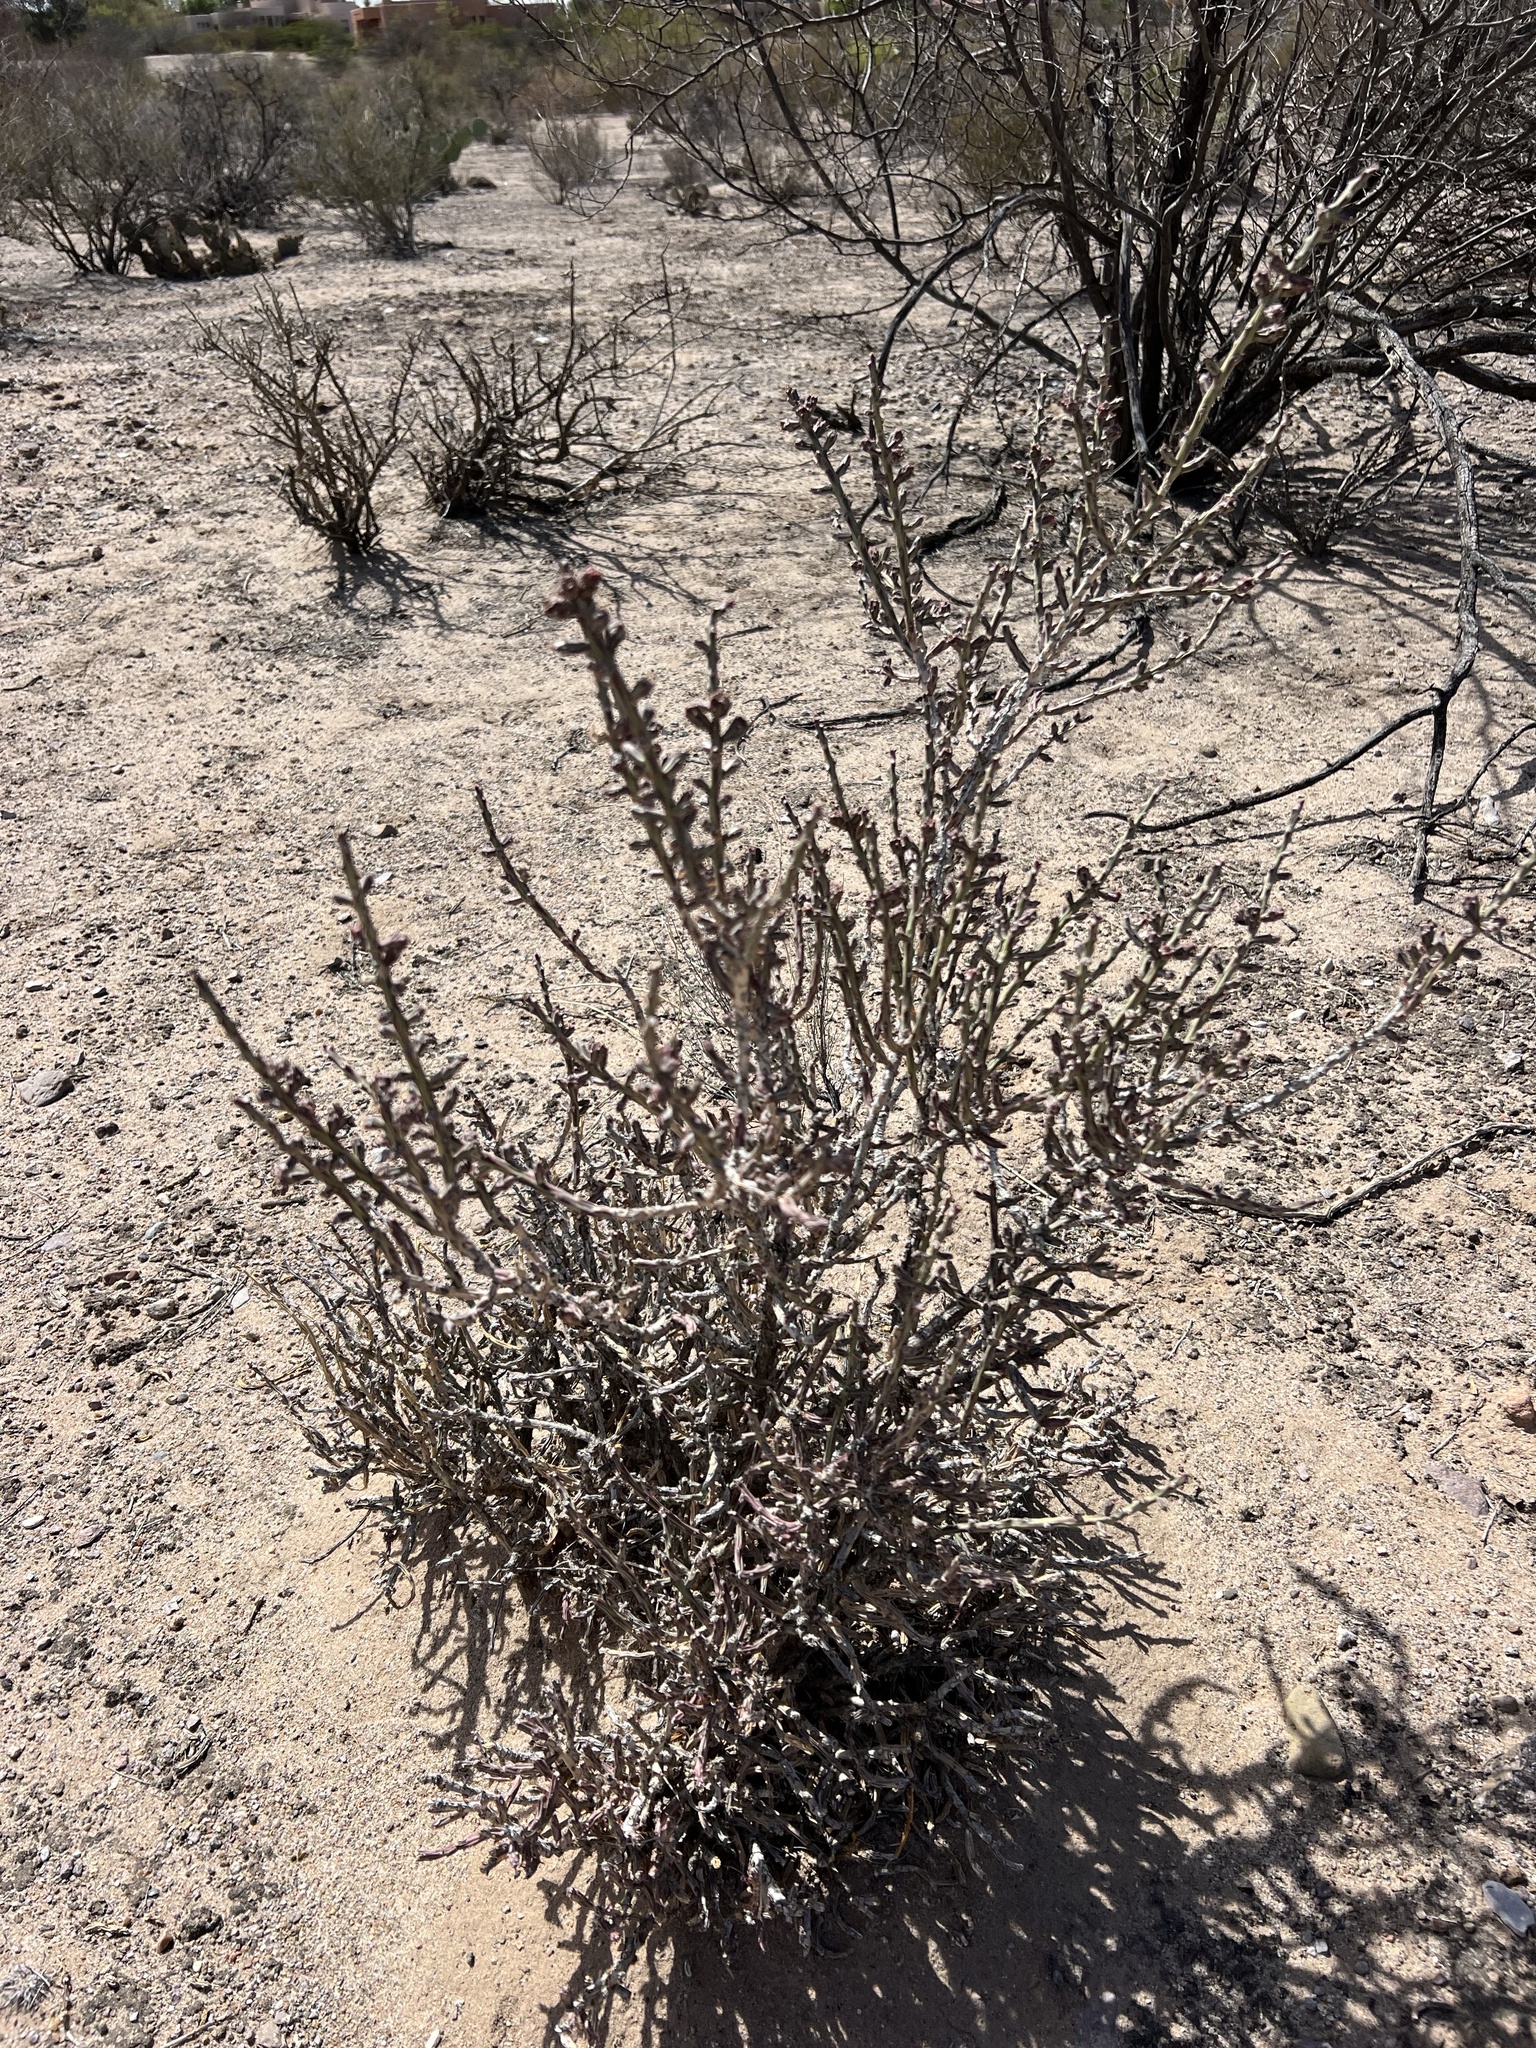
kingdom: Plantae
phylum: Tracheophyta
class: Magnoliopsida
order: Caryophyllales
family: Cactaceae
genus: Cylindropuntia
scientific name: Cylindropuntia leptocaulis
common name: Christmas cactus
